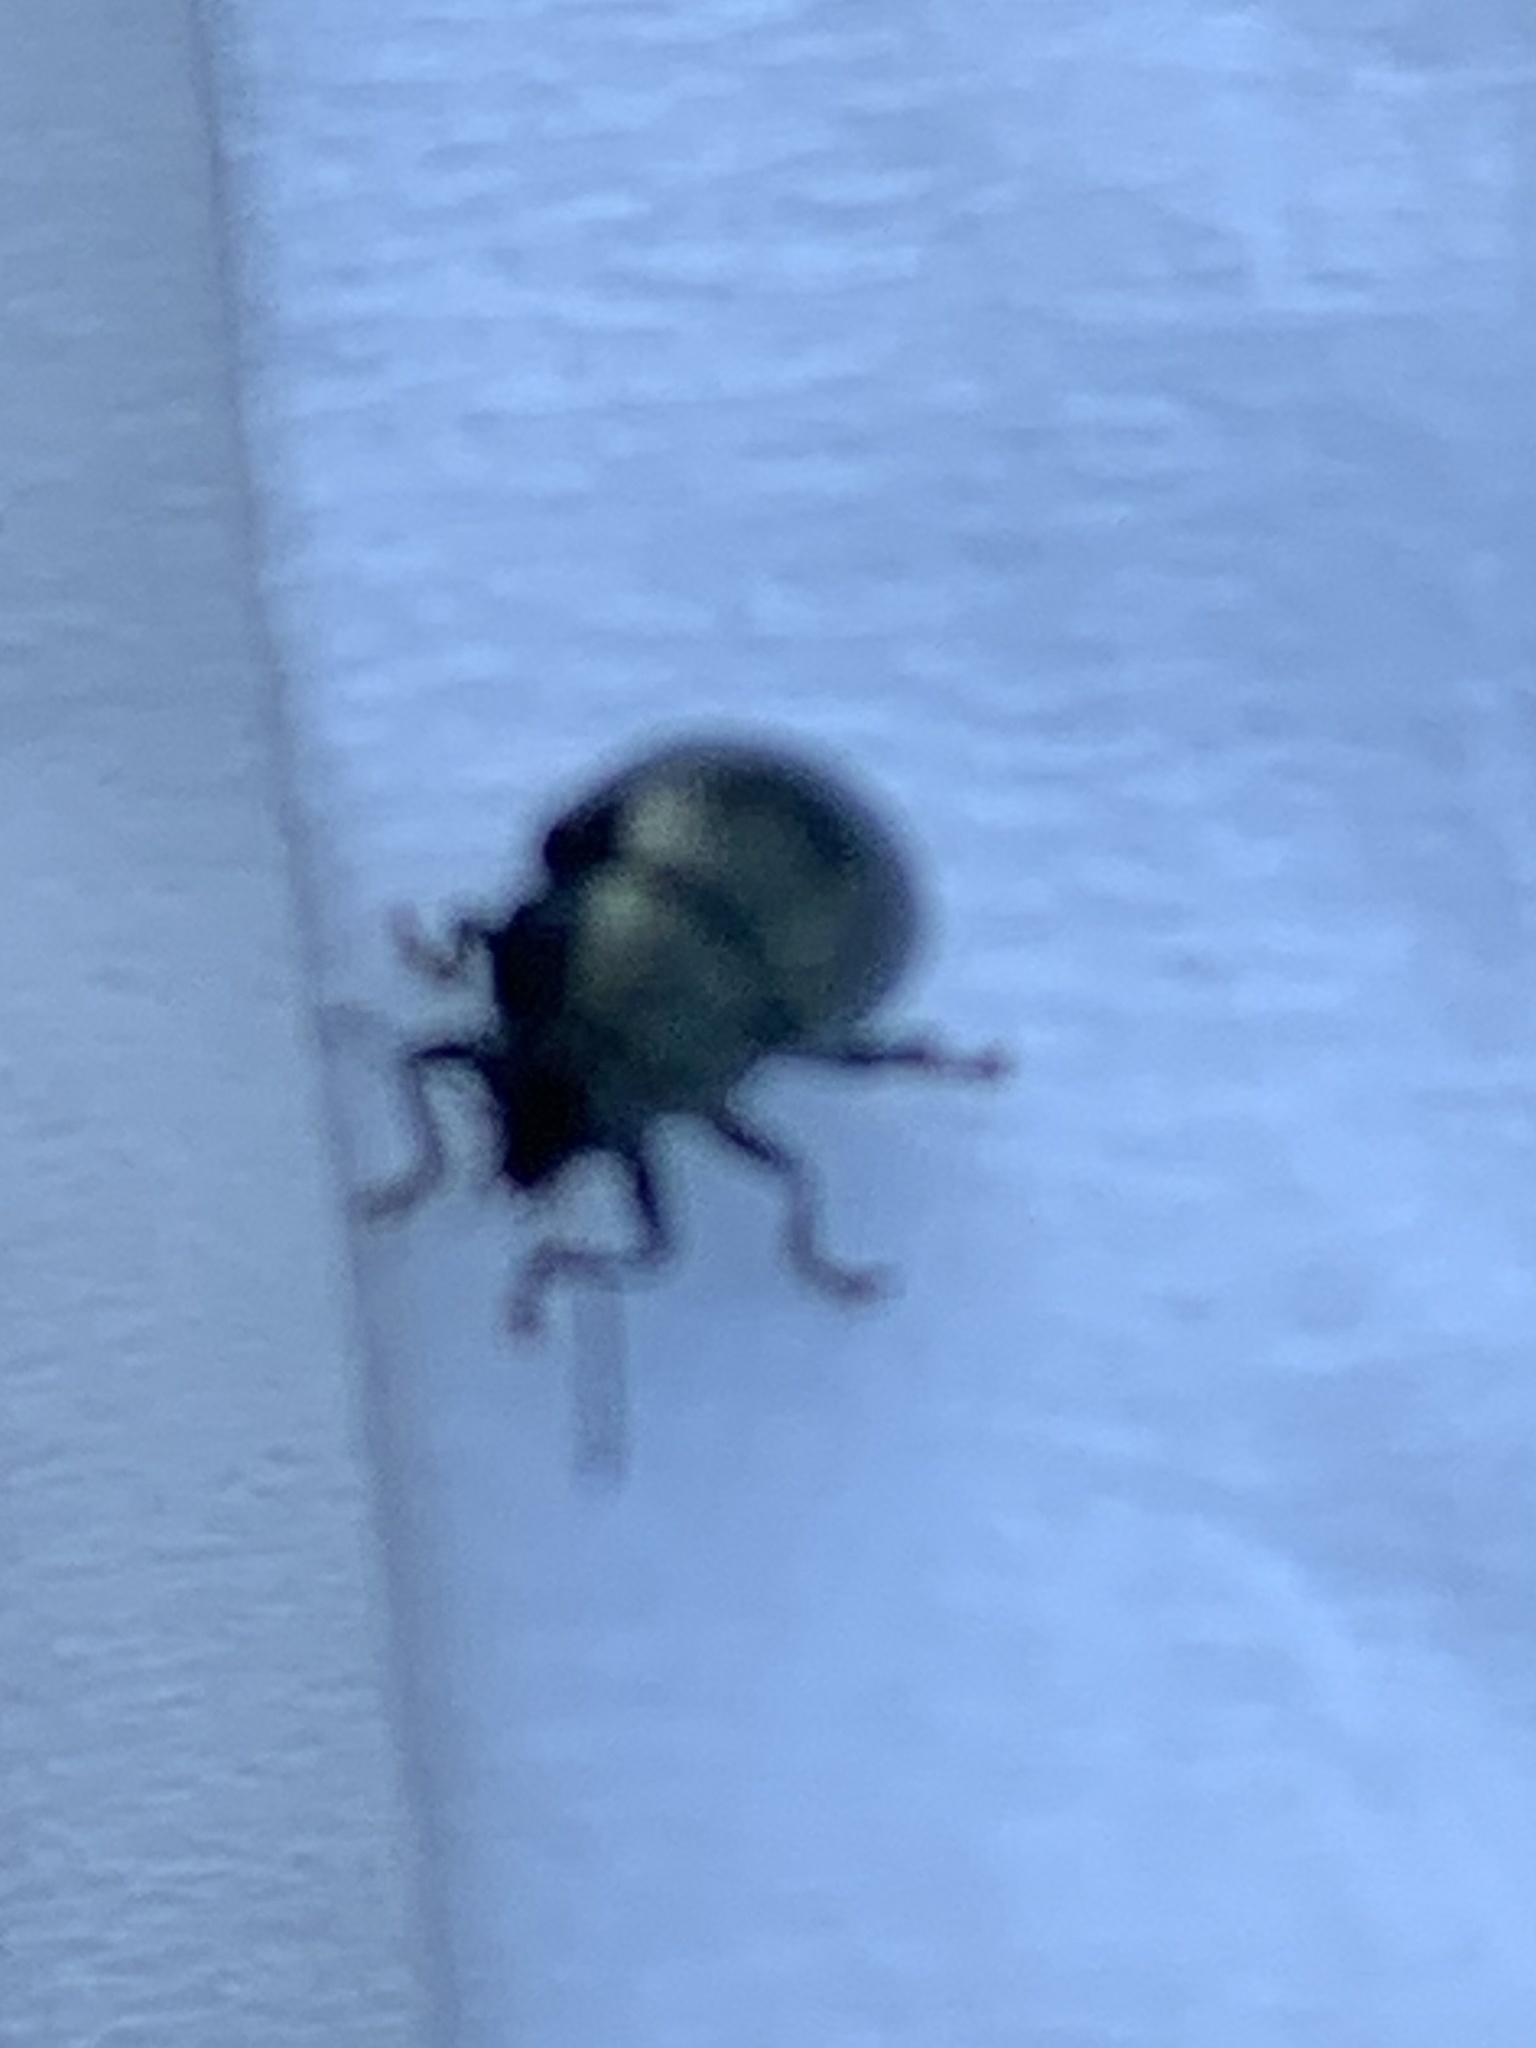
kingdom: Animalia
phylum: Arthropoda
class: Insecta
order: Coleoptera
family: Chrysomelidae
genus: Brachypnoea
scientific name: Brachypnoea lecontei
